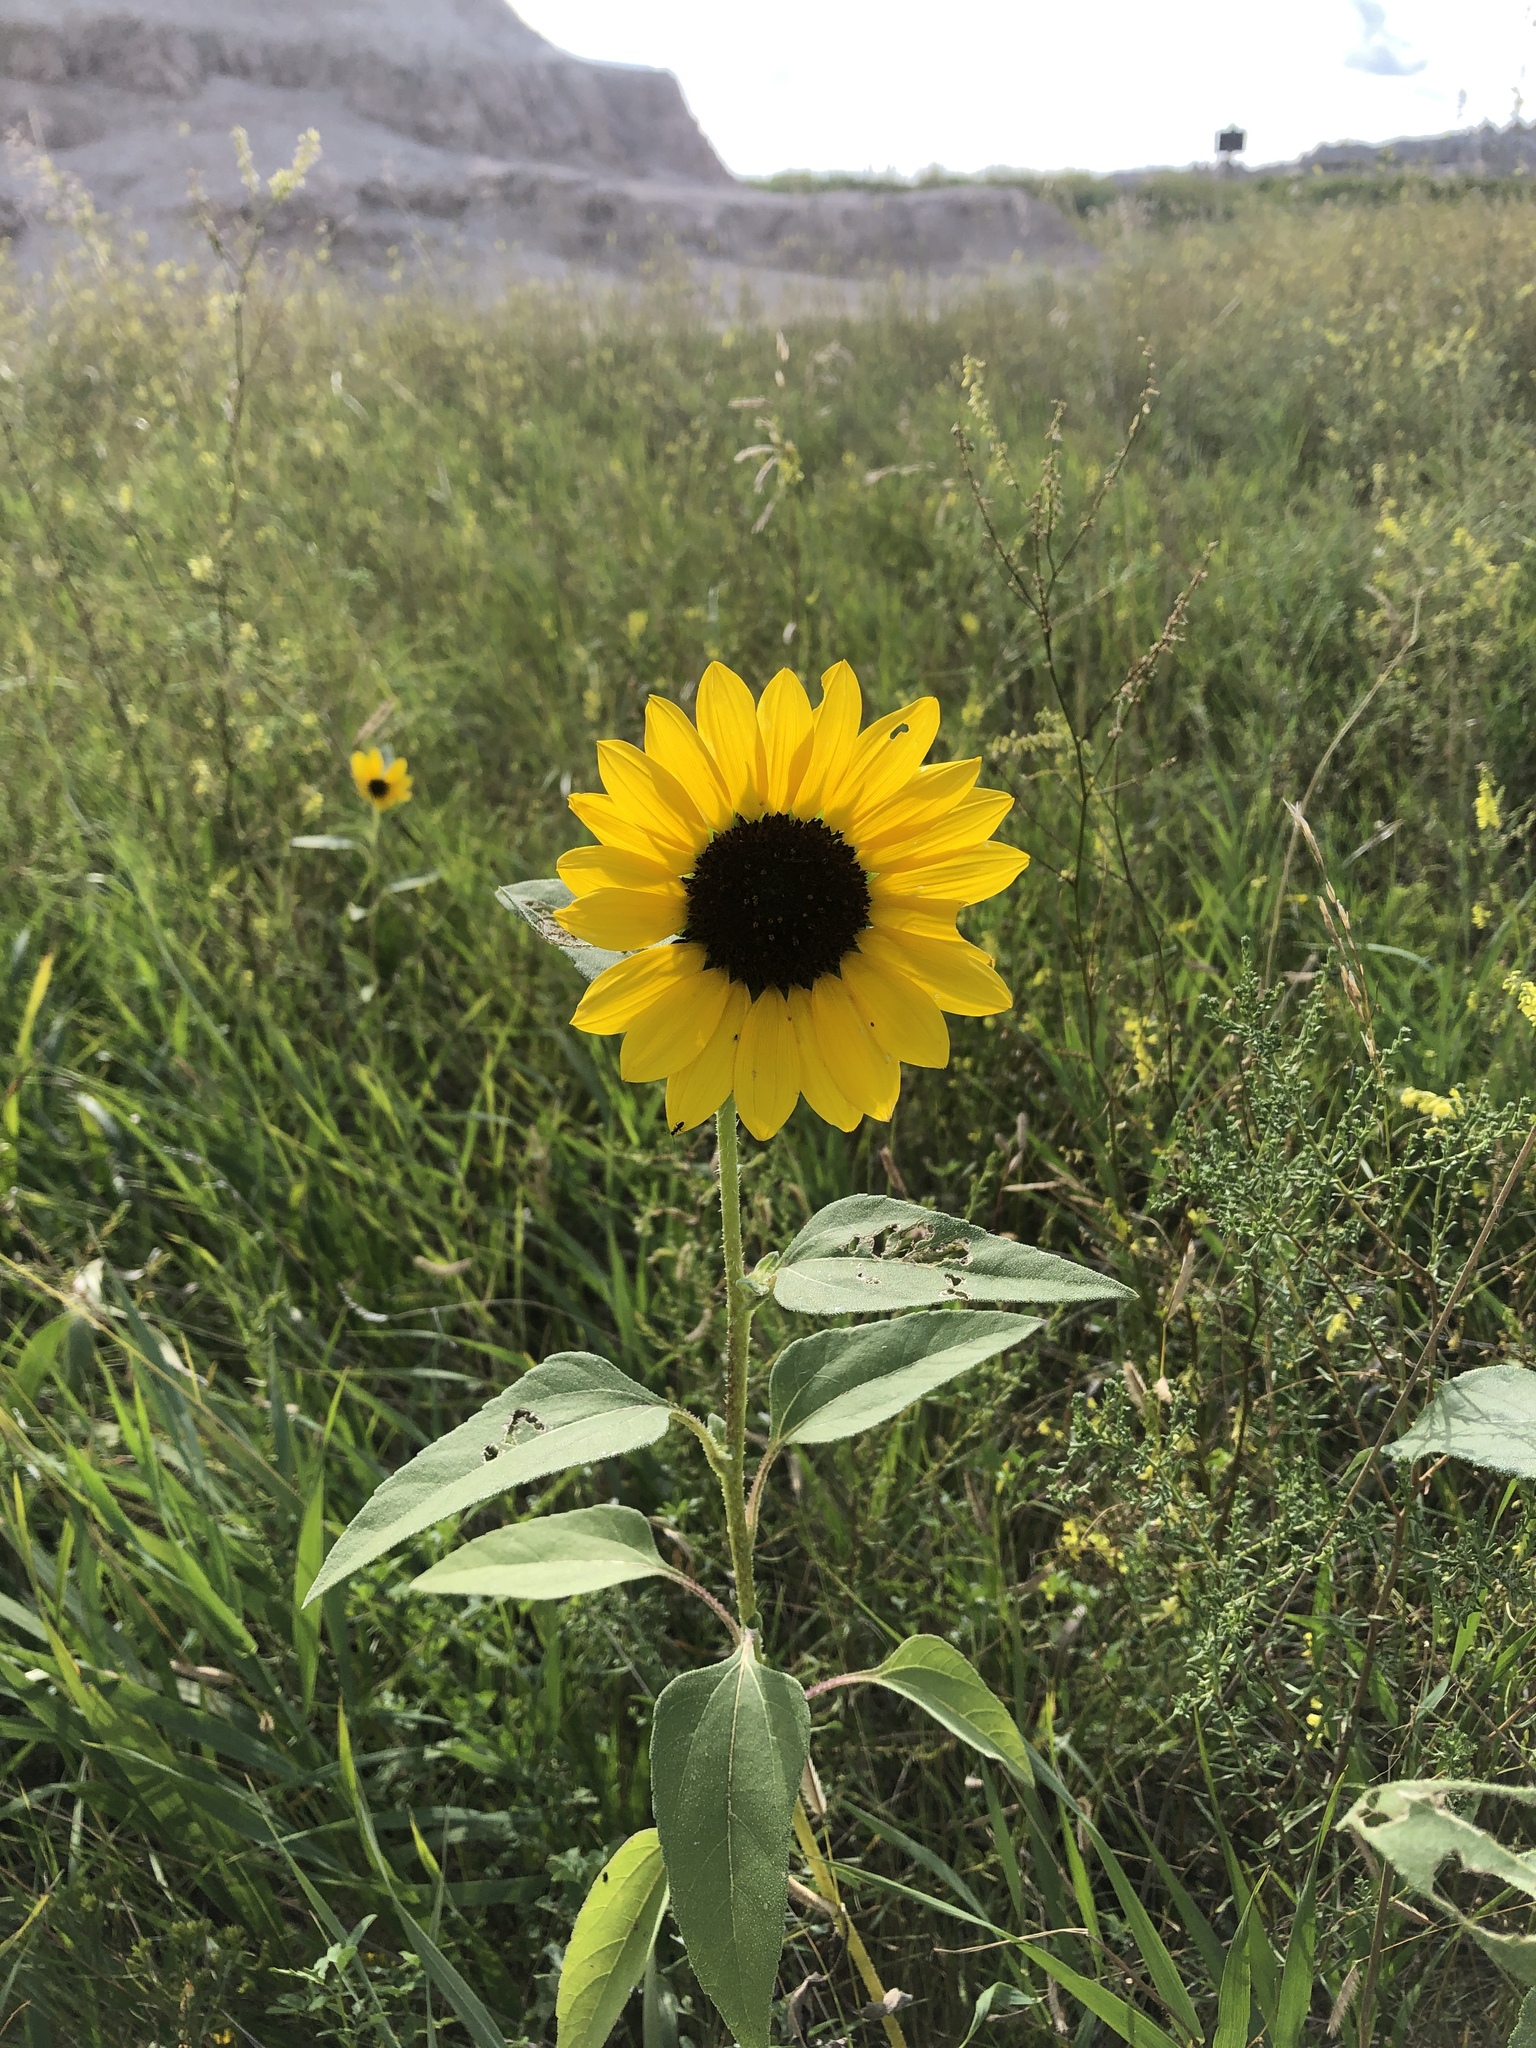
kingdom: Plantae
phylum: Tracheophyta
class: Magnoliopsida
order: Asterales
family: Asteraceae
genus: Helianthus
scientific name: Helianthus petiolaris
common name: Lesser sunflower
